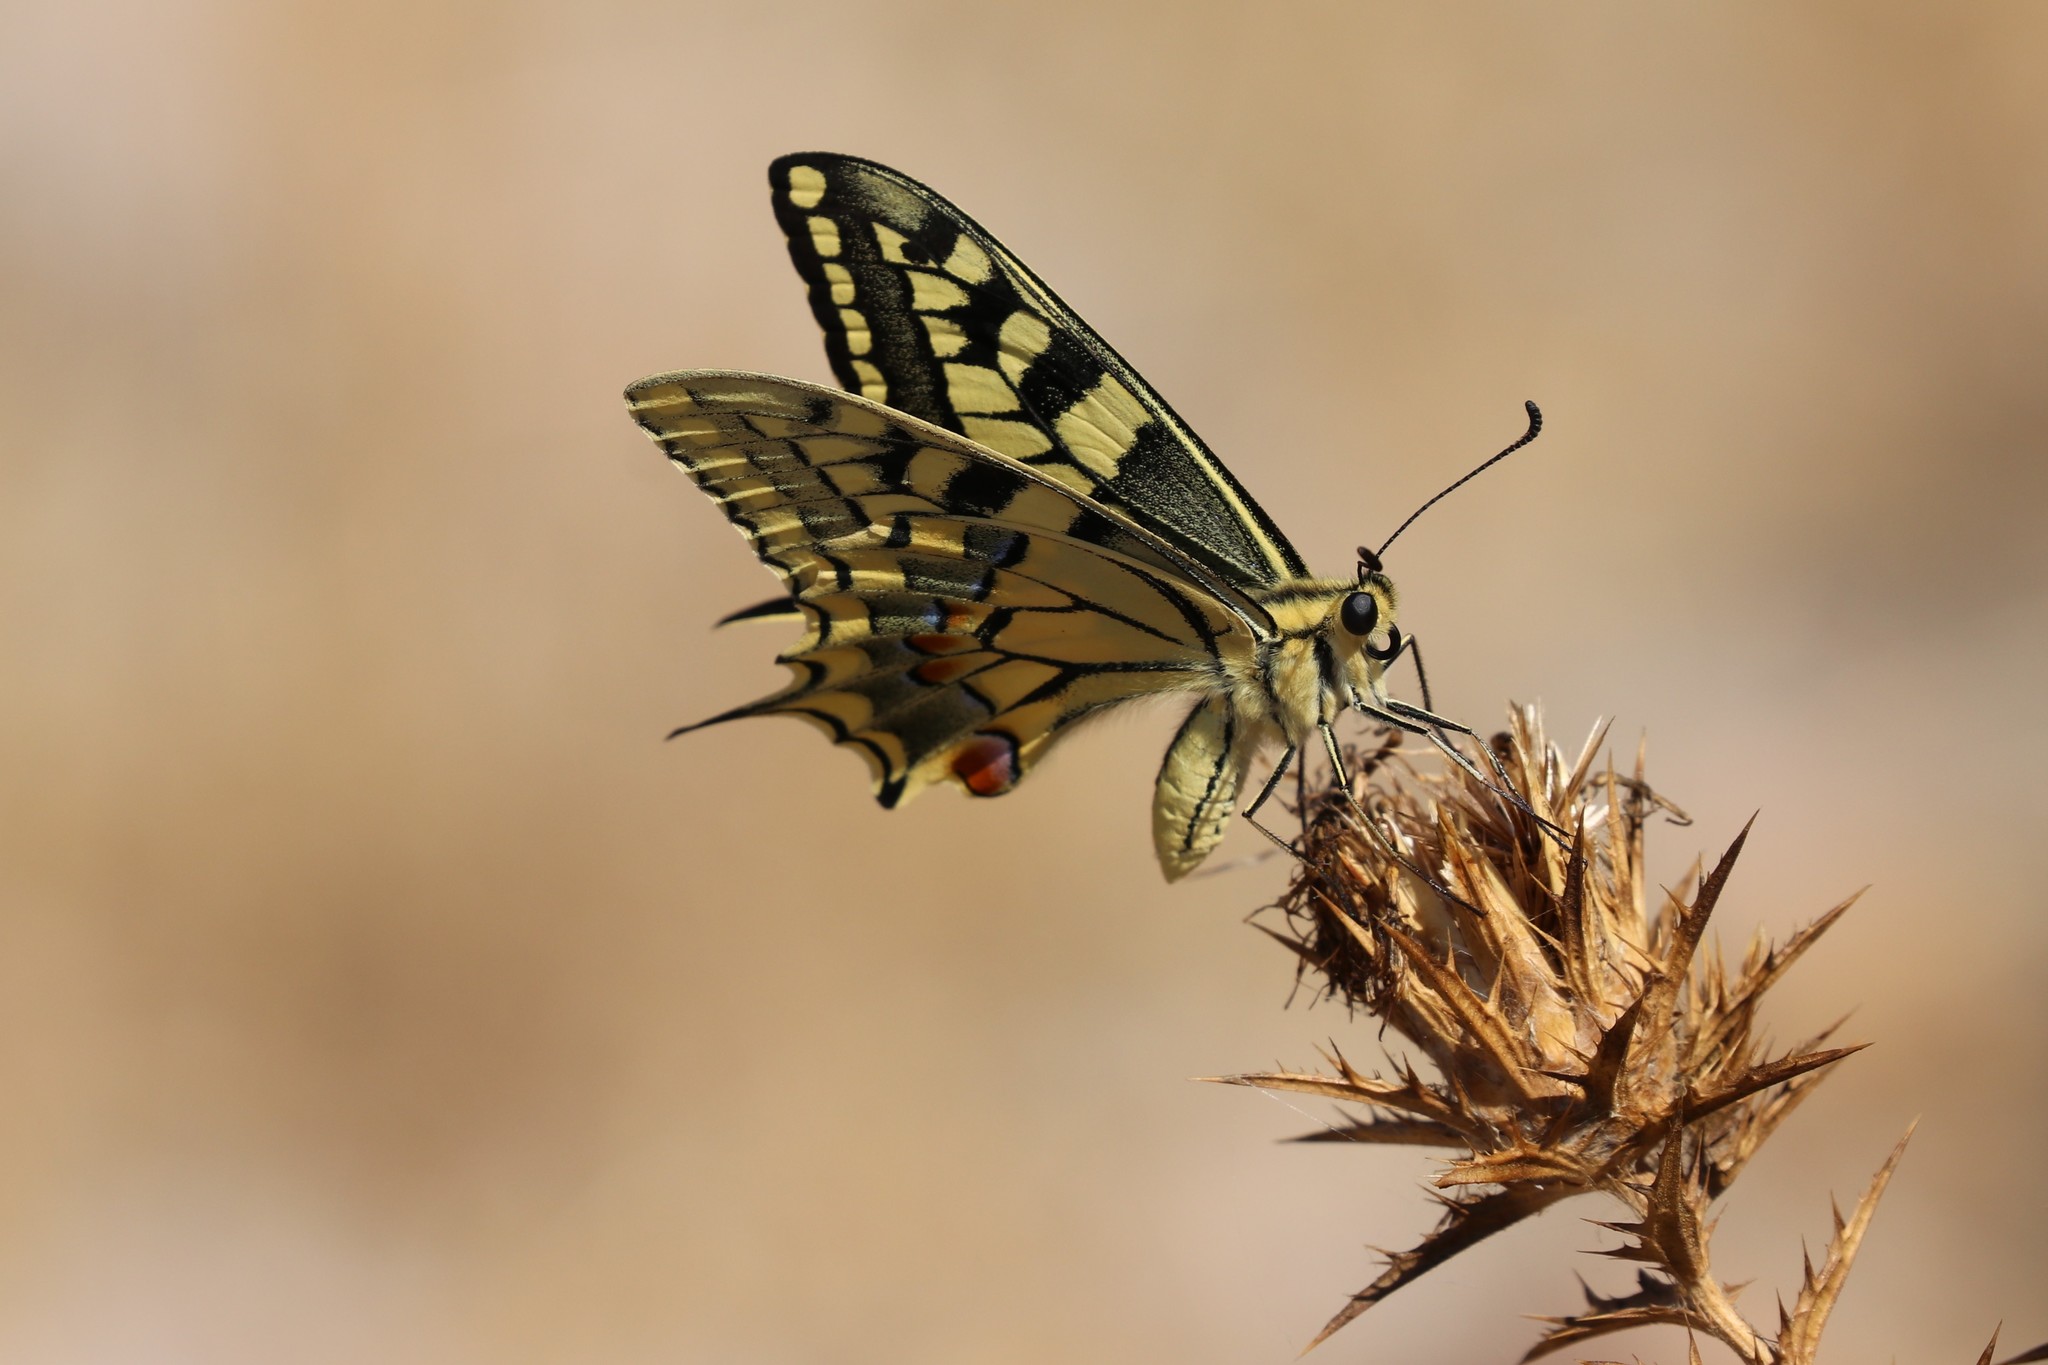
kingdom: Animalia
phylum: Arthropoda
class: Insecta
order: Lepidoptera
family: Papilionidae
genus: Papilio
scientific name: Papilio machaon
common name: Swallowtail
